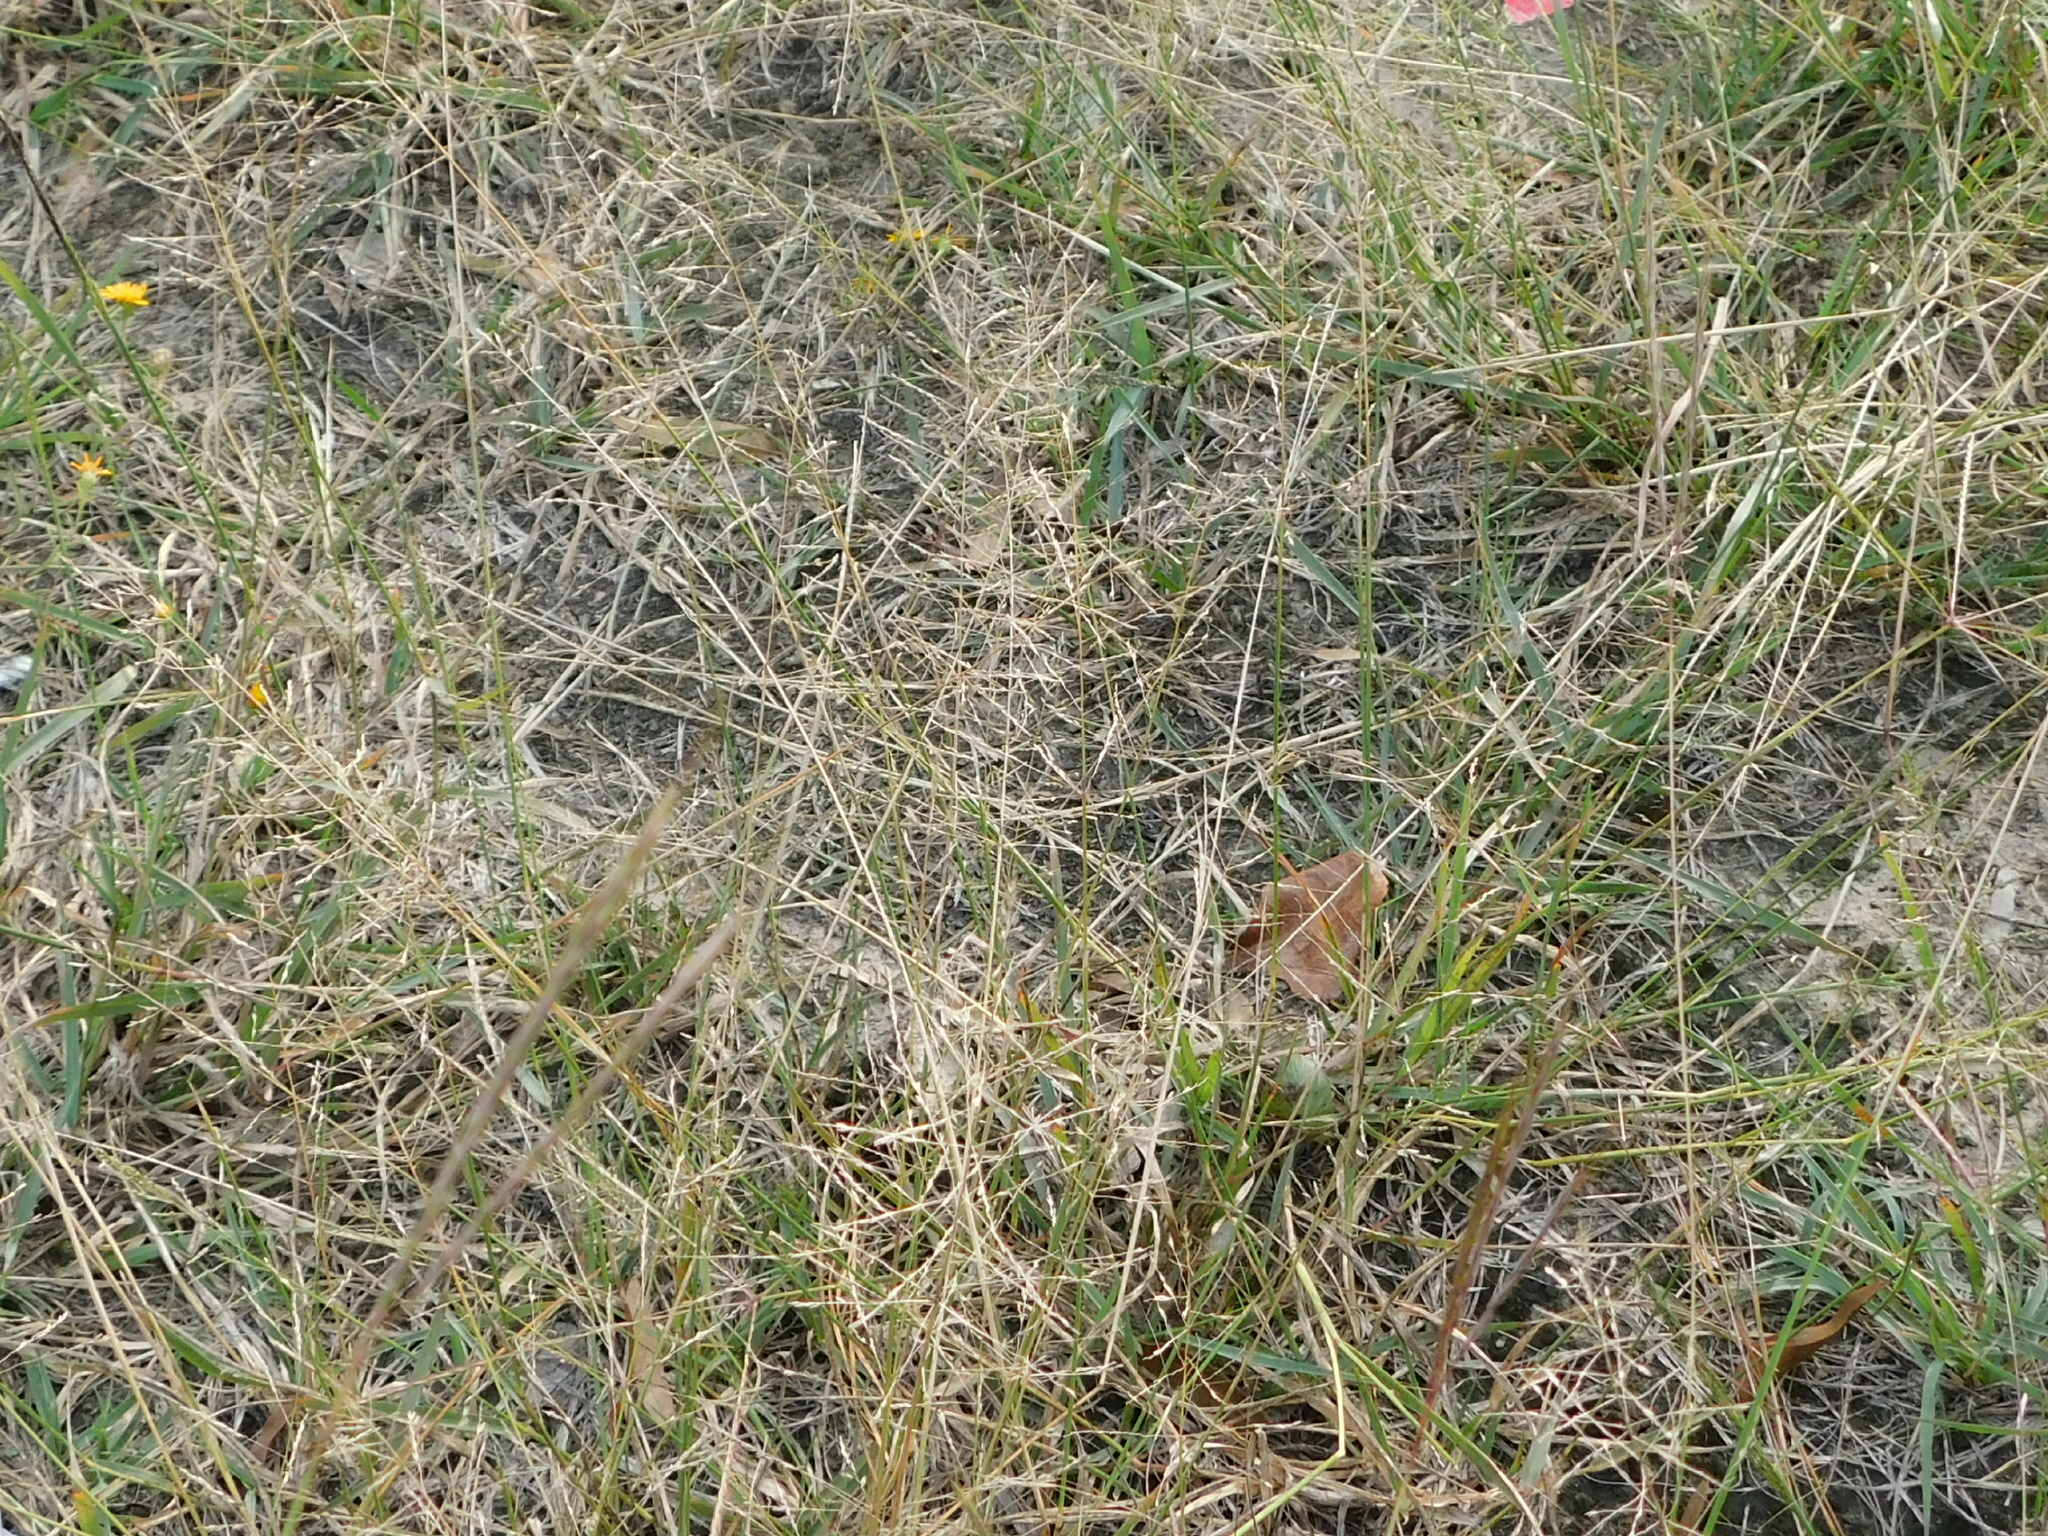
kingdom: Plantae
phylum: Tracheophyta
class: Liliopsida
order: Poales
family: Poaceae
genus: Sporobolus
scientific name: Sporobolus pyramidatus
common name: Whorled dropseed
